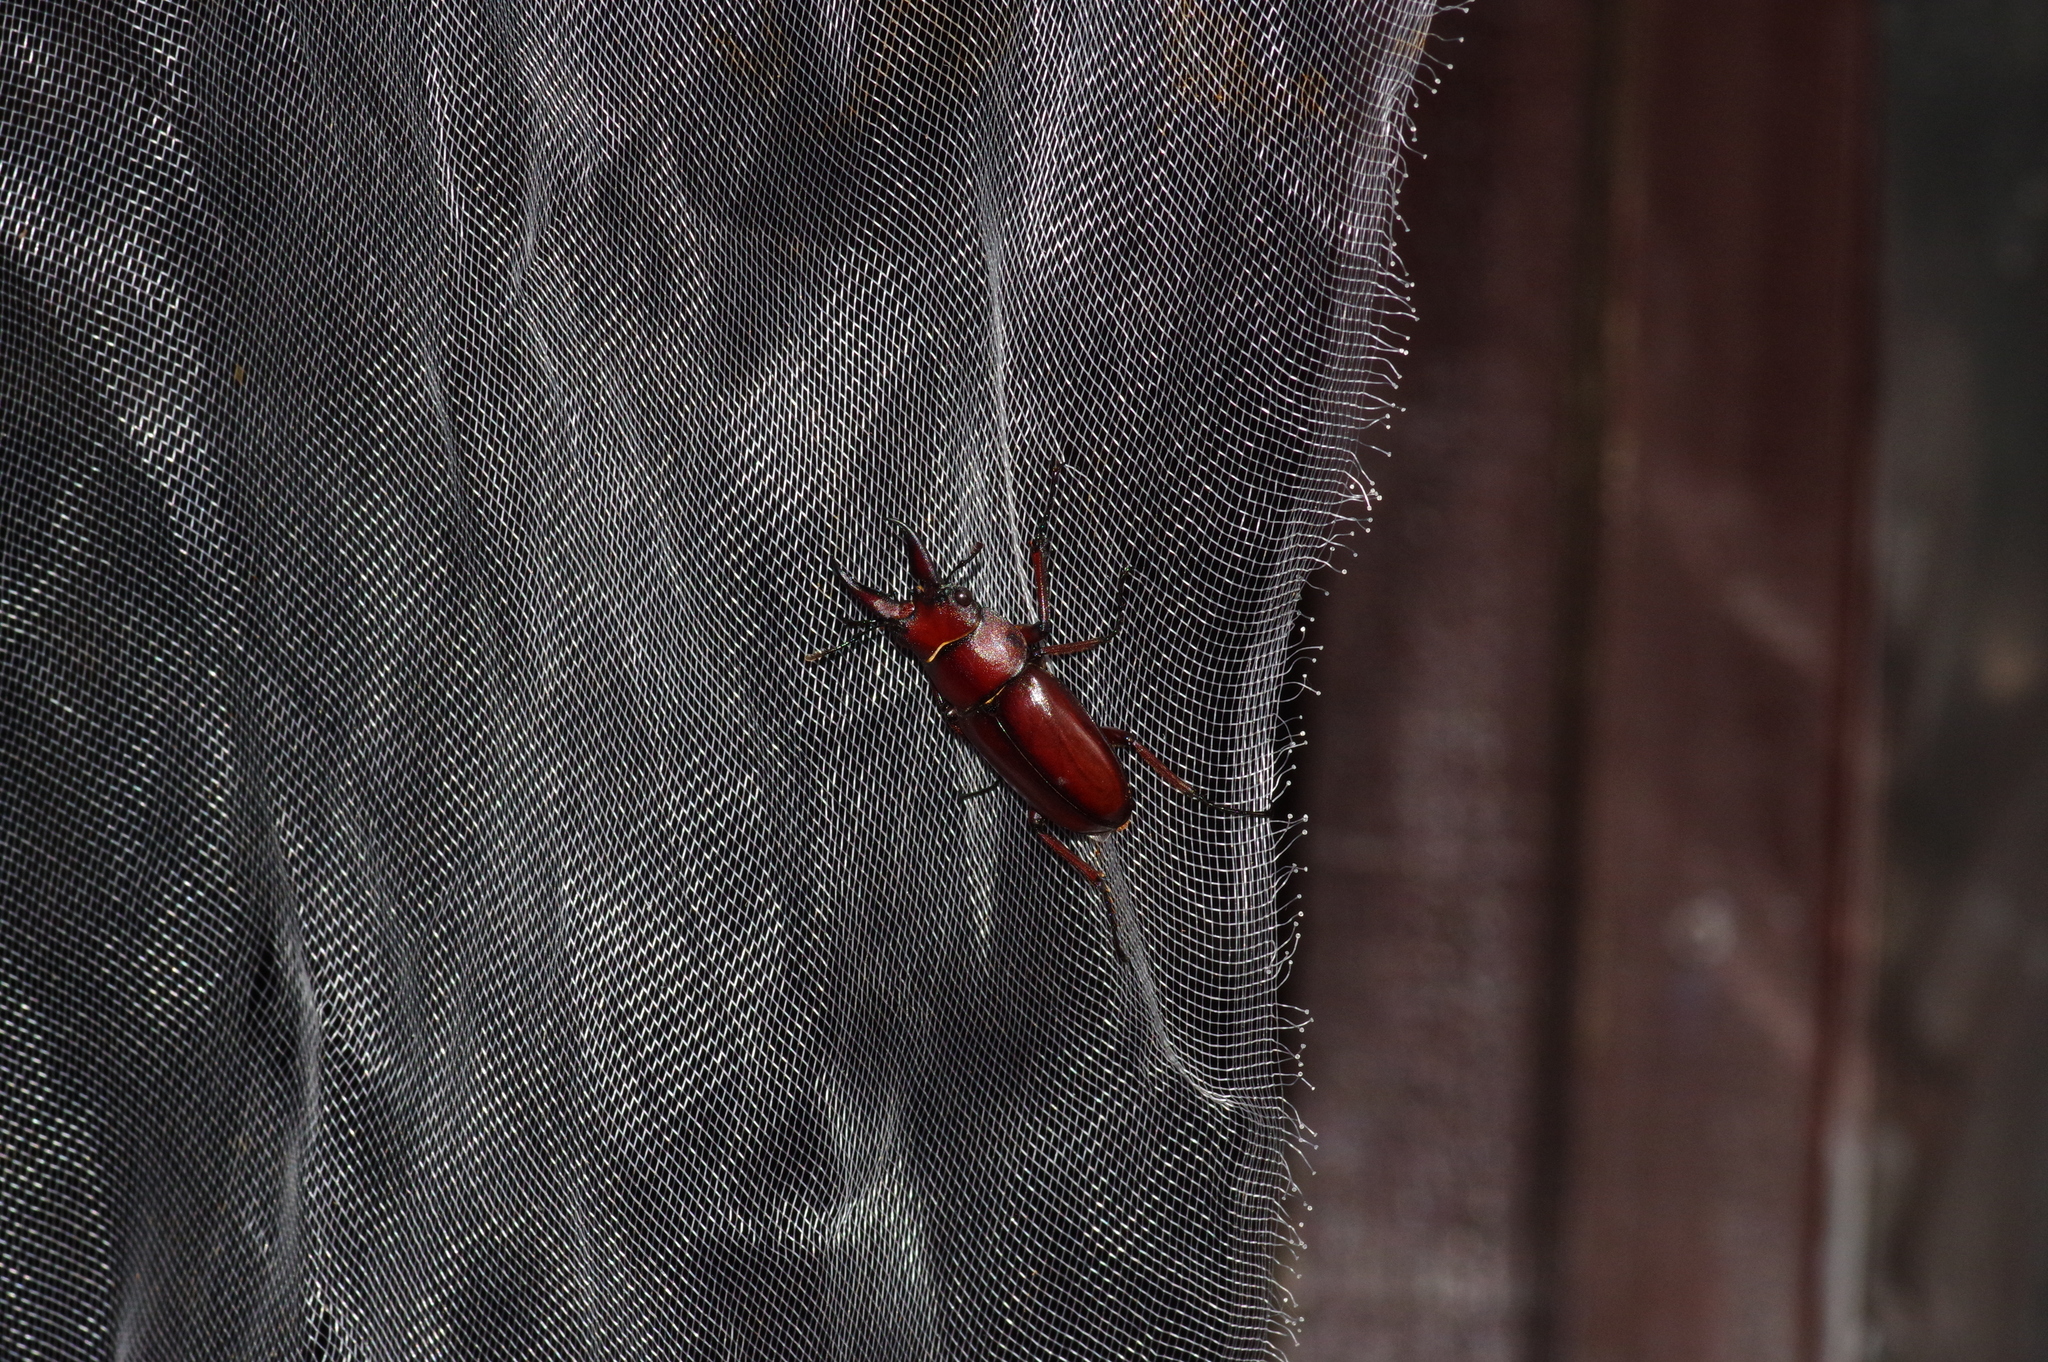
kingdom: Animalia
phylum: Arthropoda
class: Insecta
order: Coleoptera
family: Lucanidae
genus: Prosopocoilus
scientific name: Prosopocoilus dissimilis
